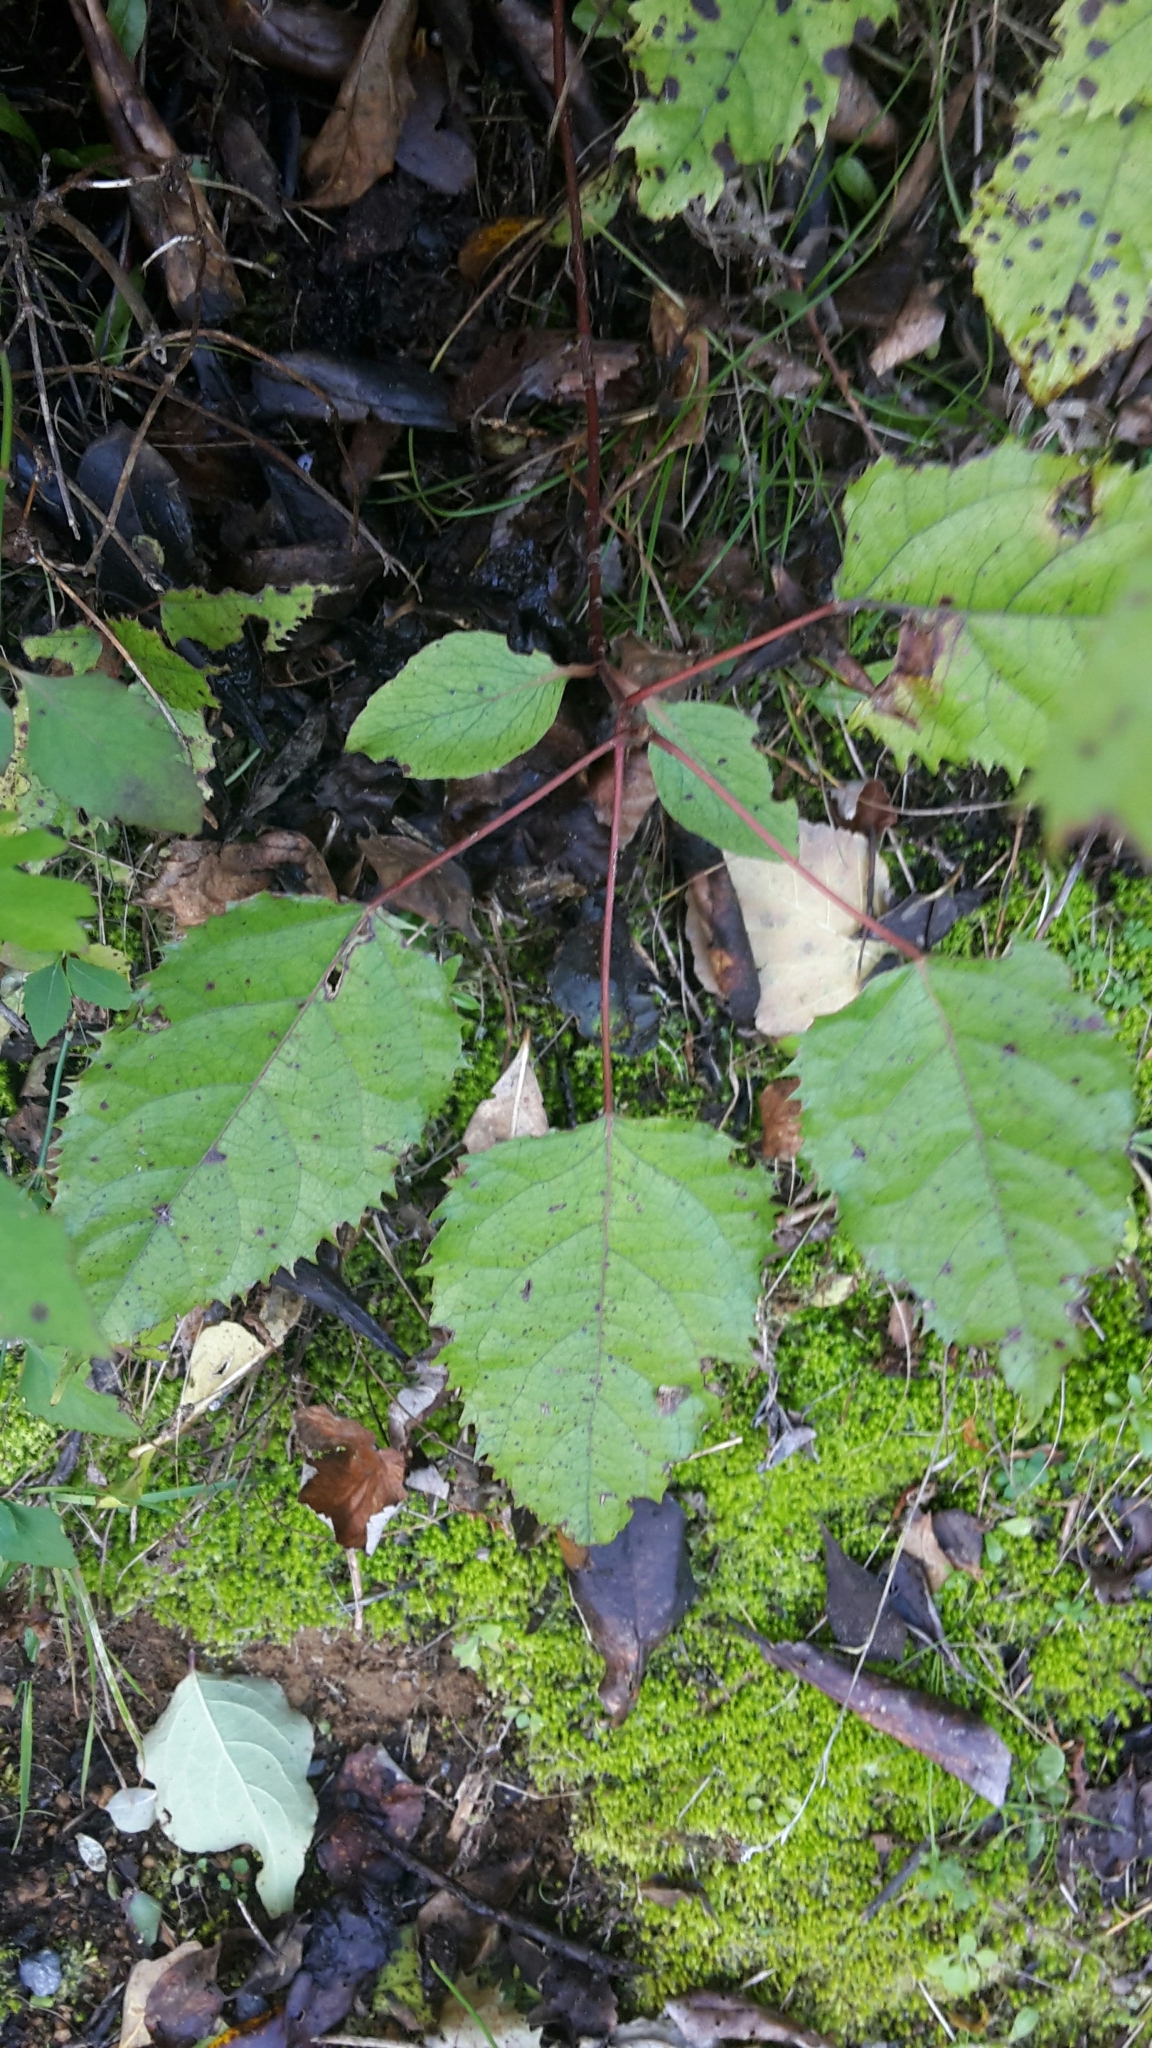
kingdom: Plantae
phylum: Tracheophyta
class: Magnoliopsida
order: Oxalidales
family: Elaeocarpaceae
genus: Aristotelia
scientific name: Aristotelia serrata
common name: New zealand wineberry
